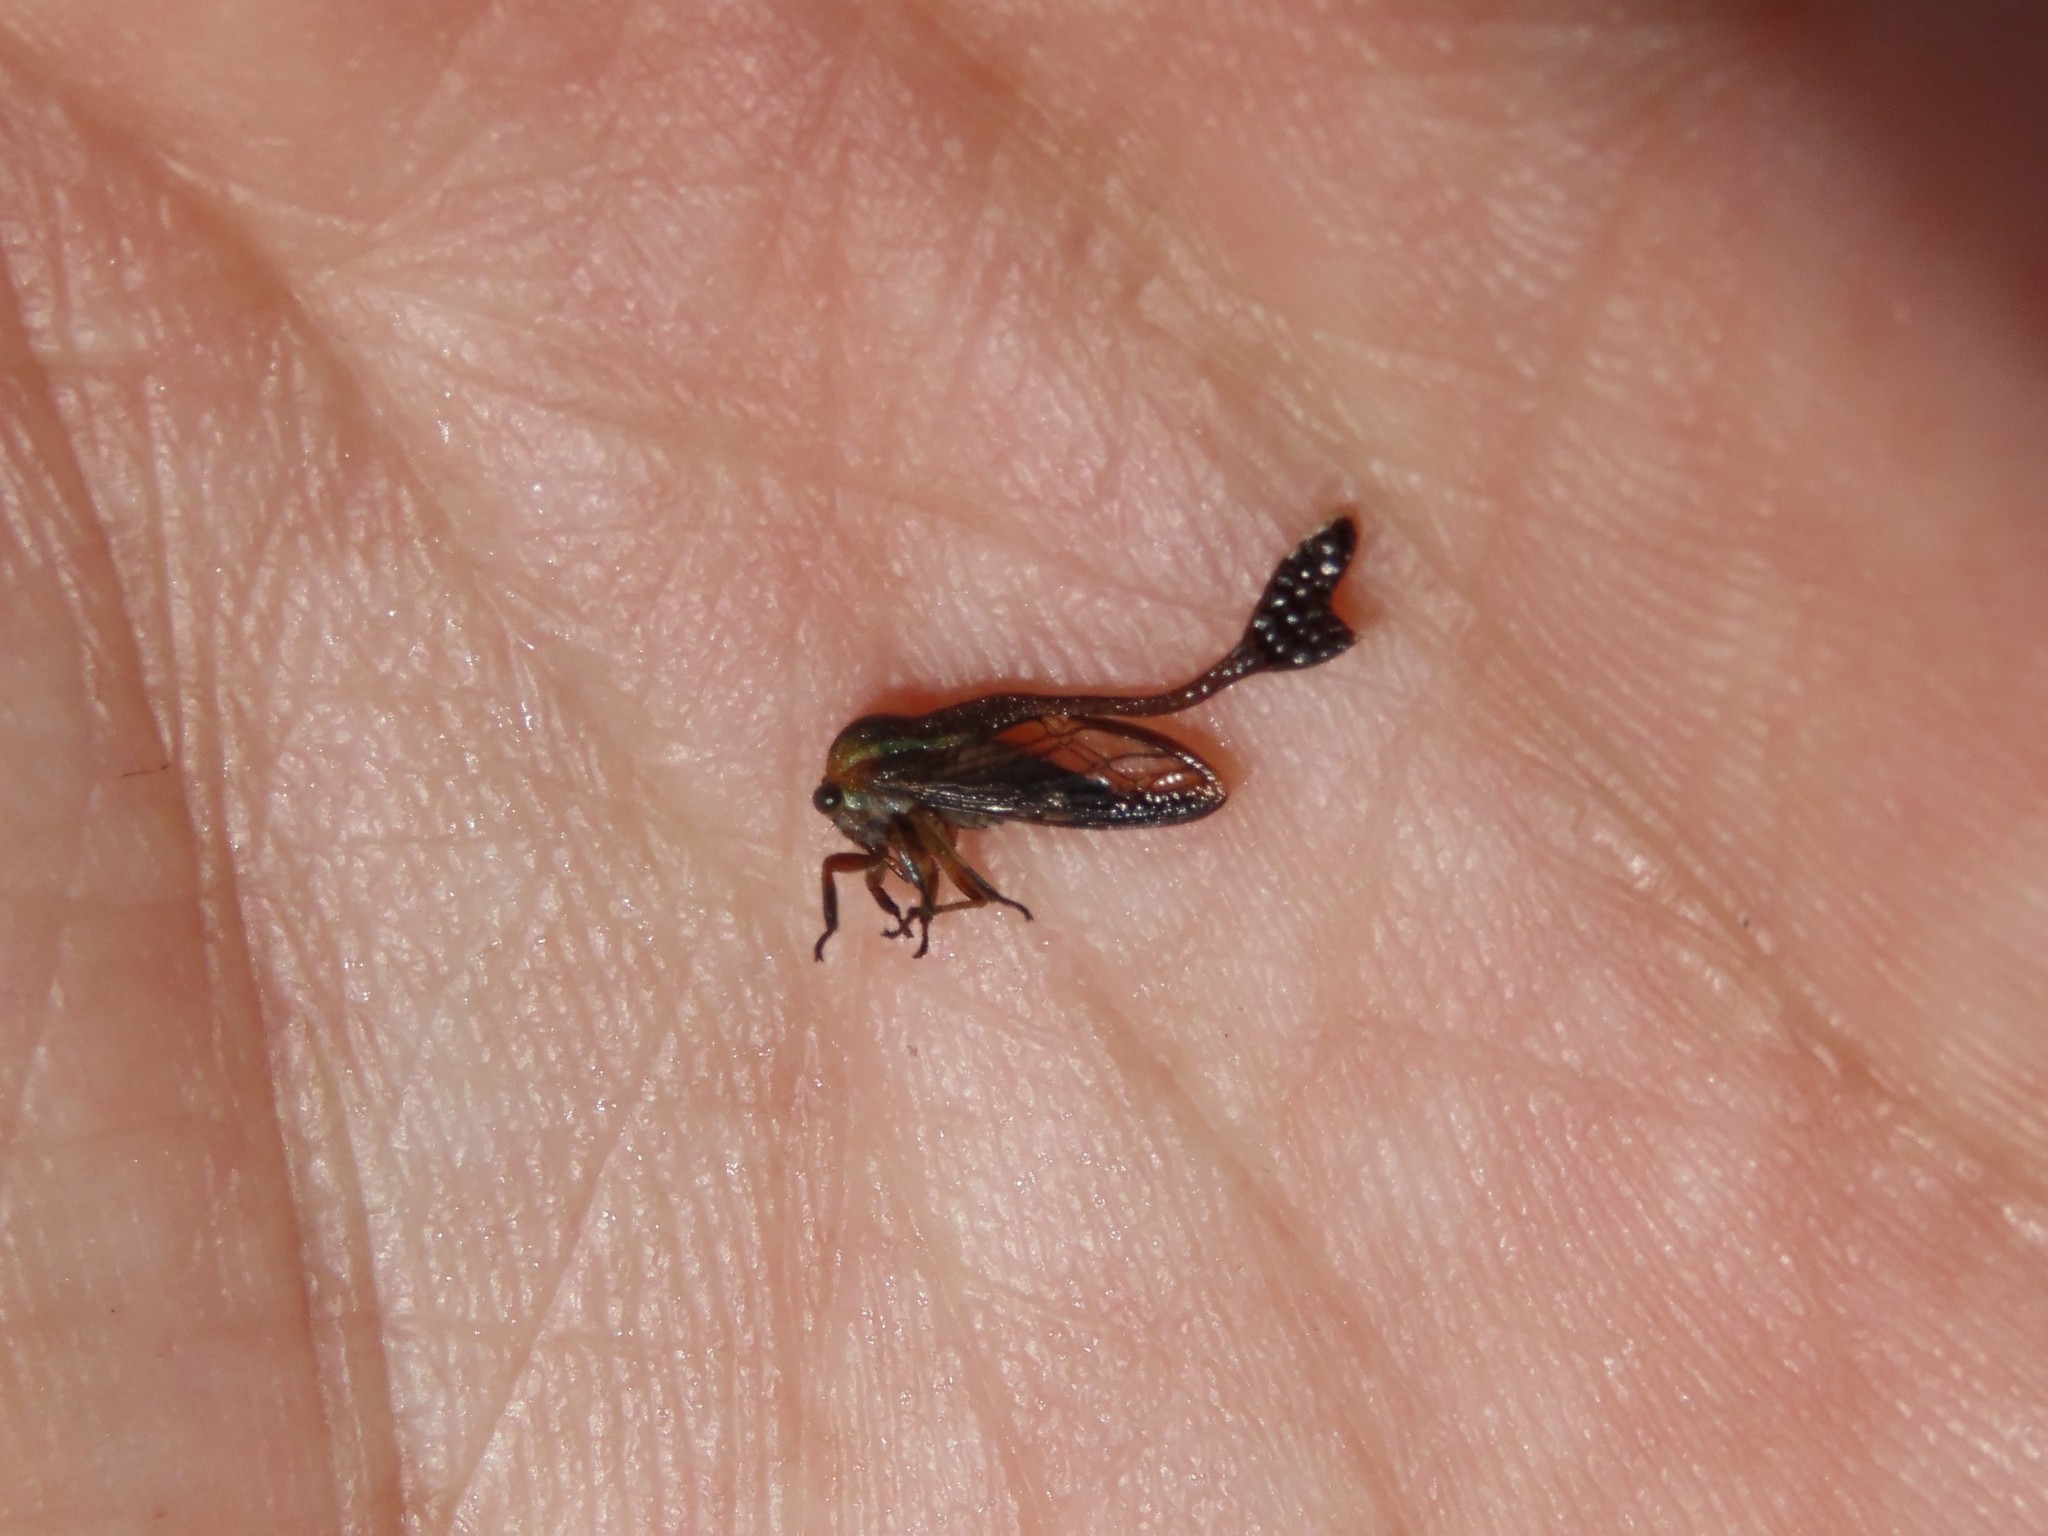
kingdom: Animalia
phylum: Arthropoda
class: Insecta
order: Hemiptera
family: Membracidae
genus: Heteronotus
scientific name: Heteronotus delineatus
